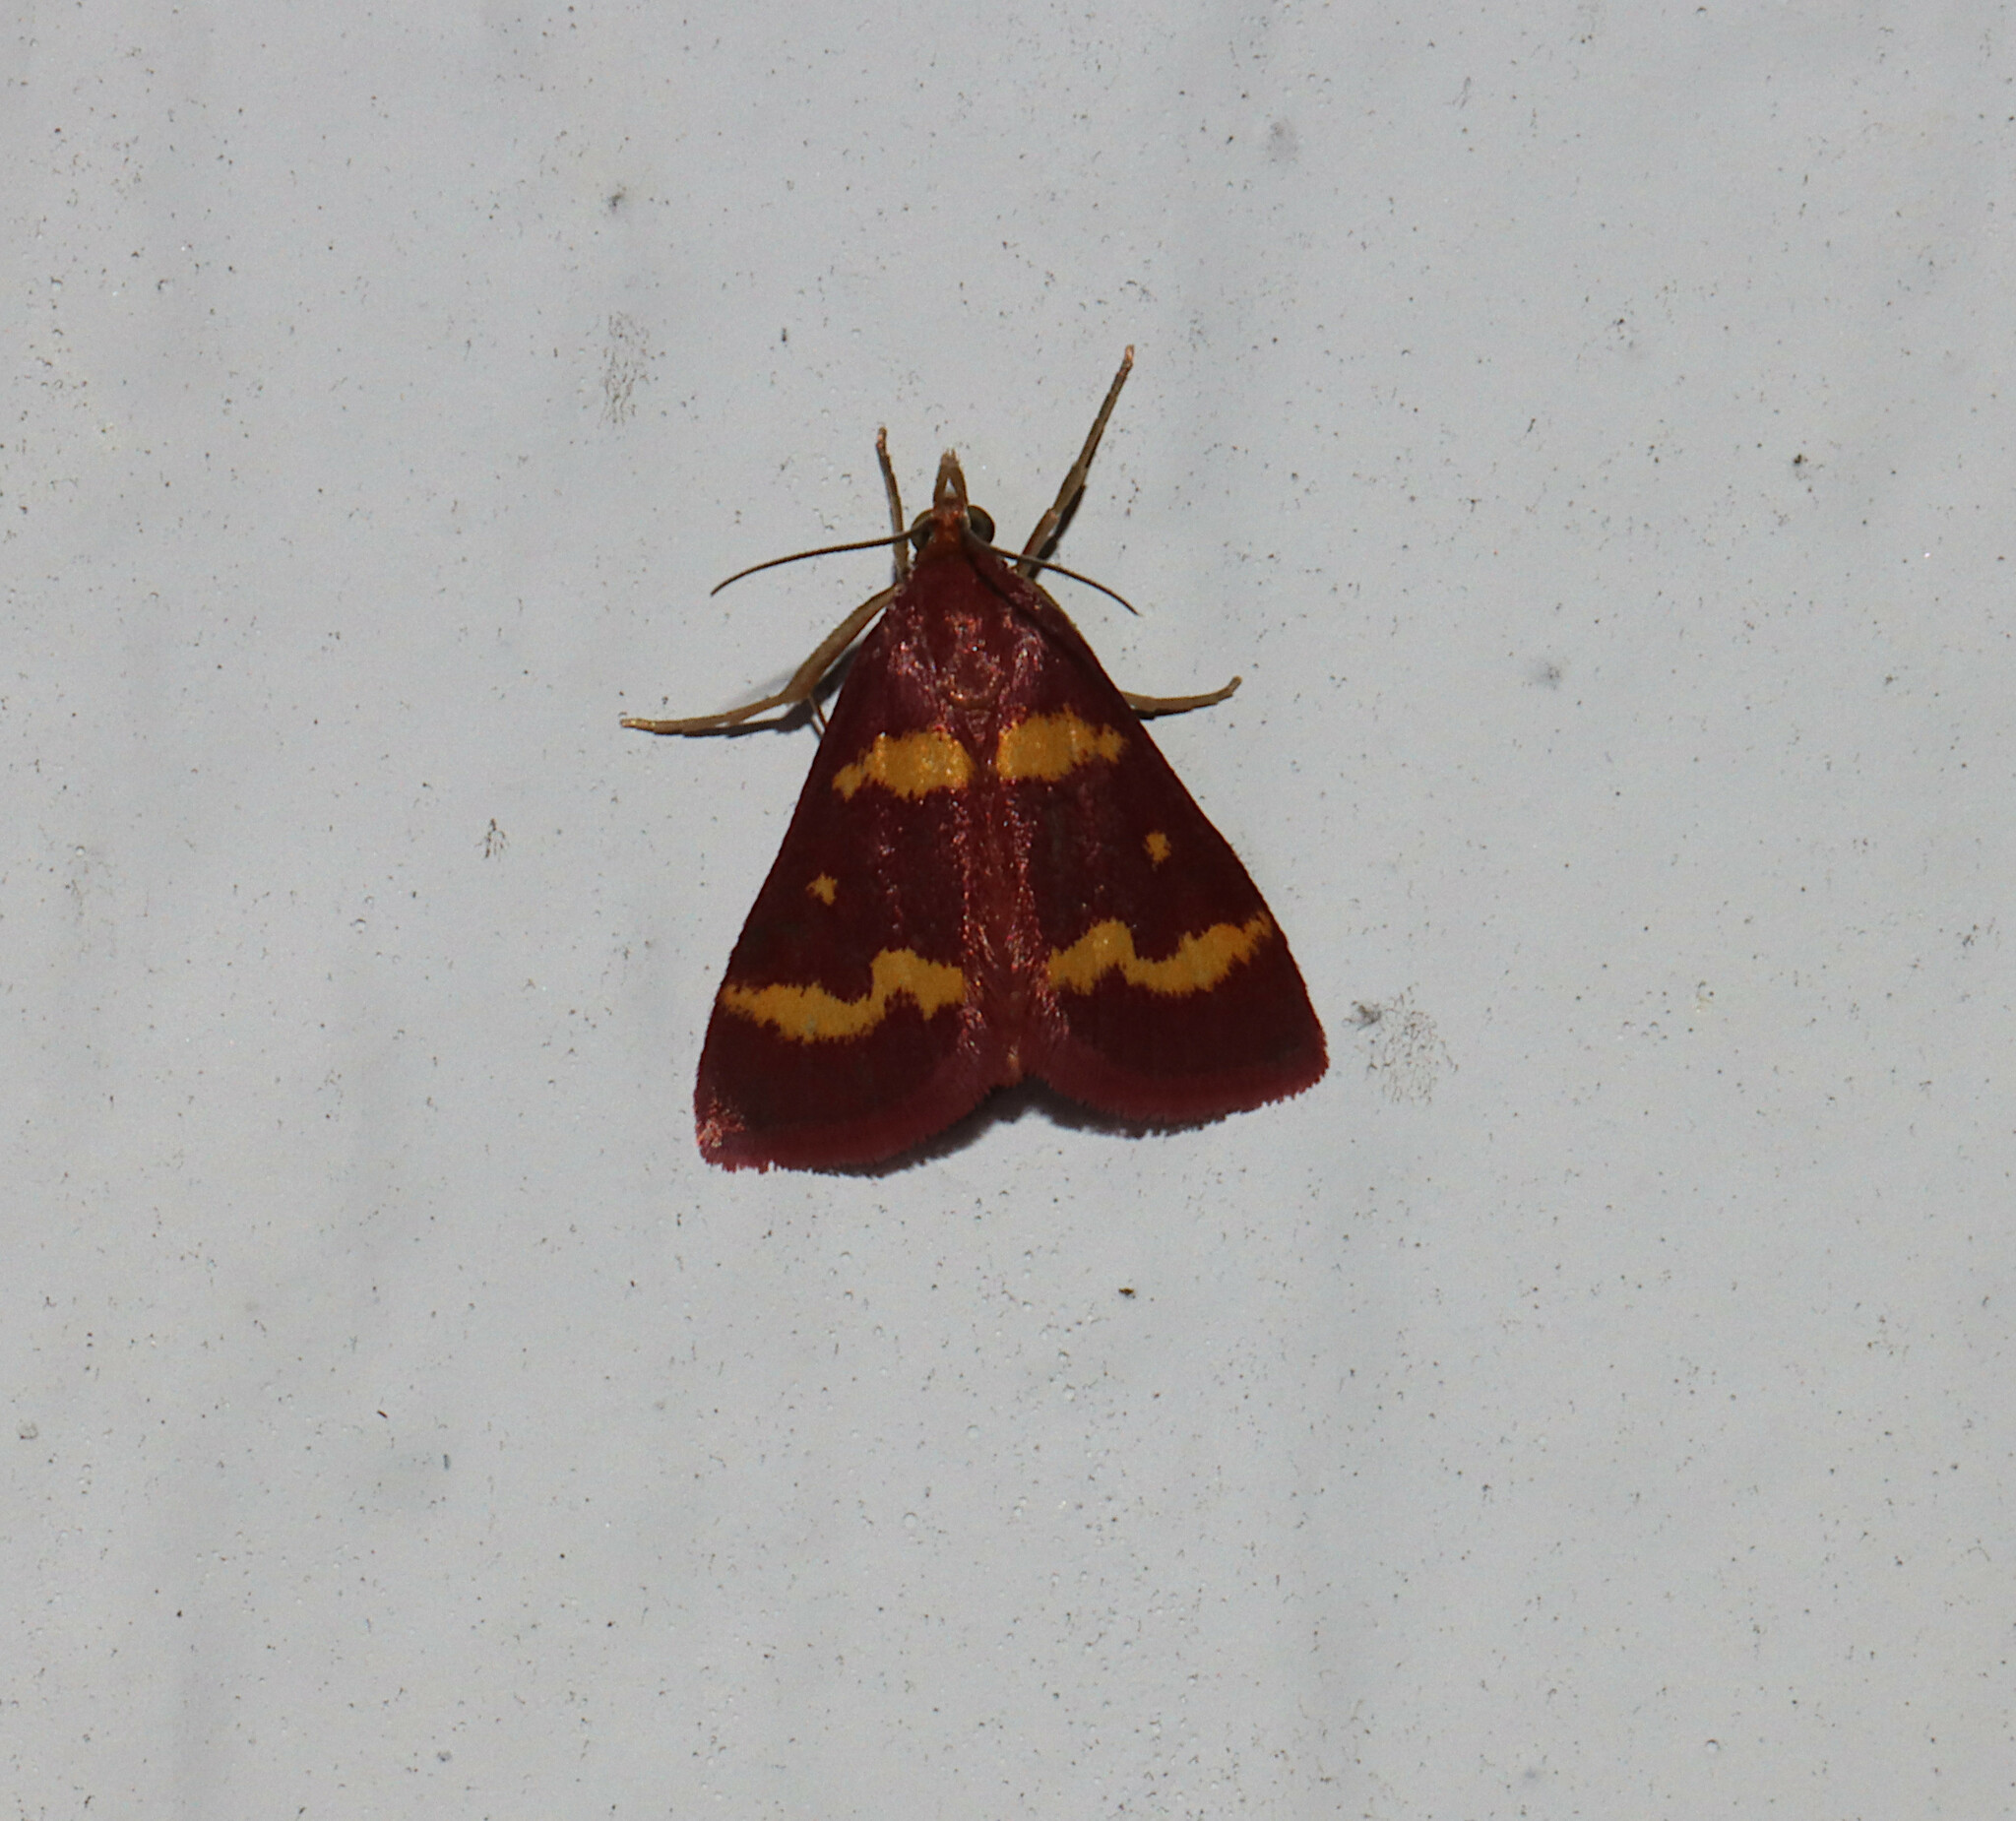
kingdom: Animalia
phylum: Arthropoda
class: Insecta
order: Lepidoptera
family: Crambidae
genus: Pyrausta
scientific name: Pyrausta tyralis
